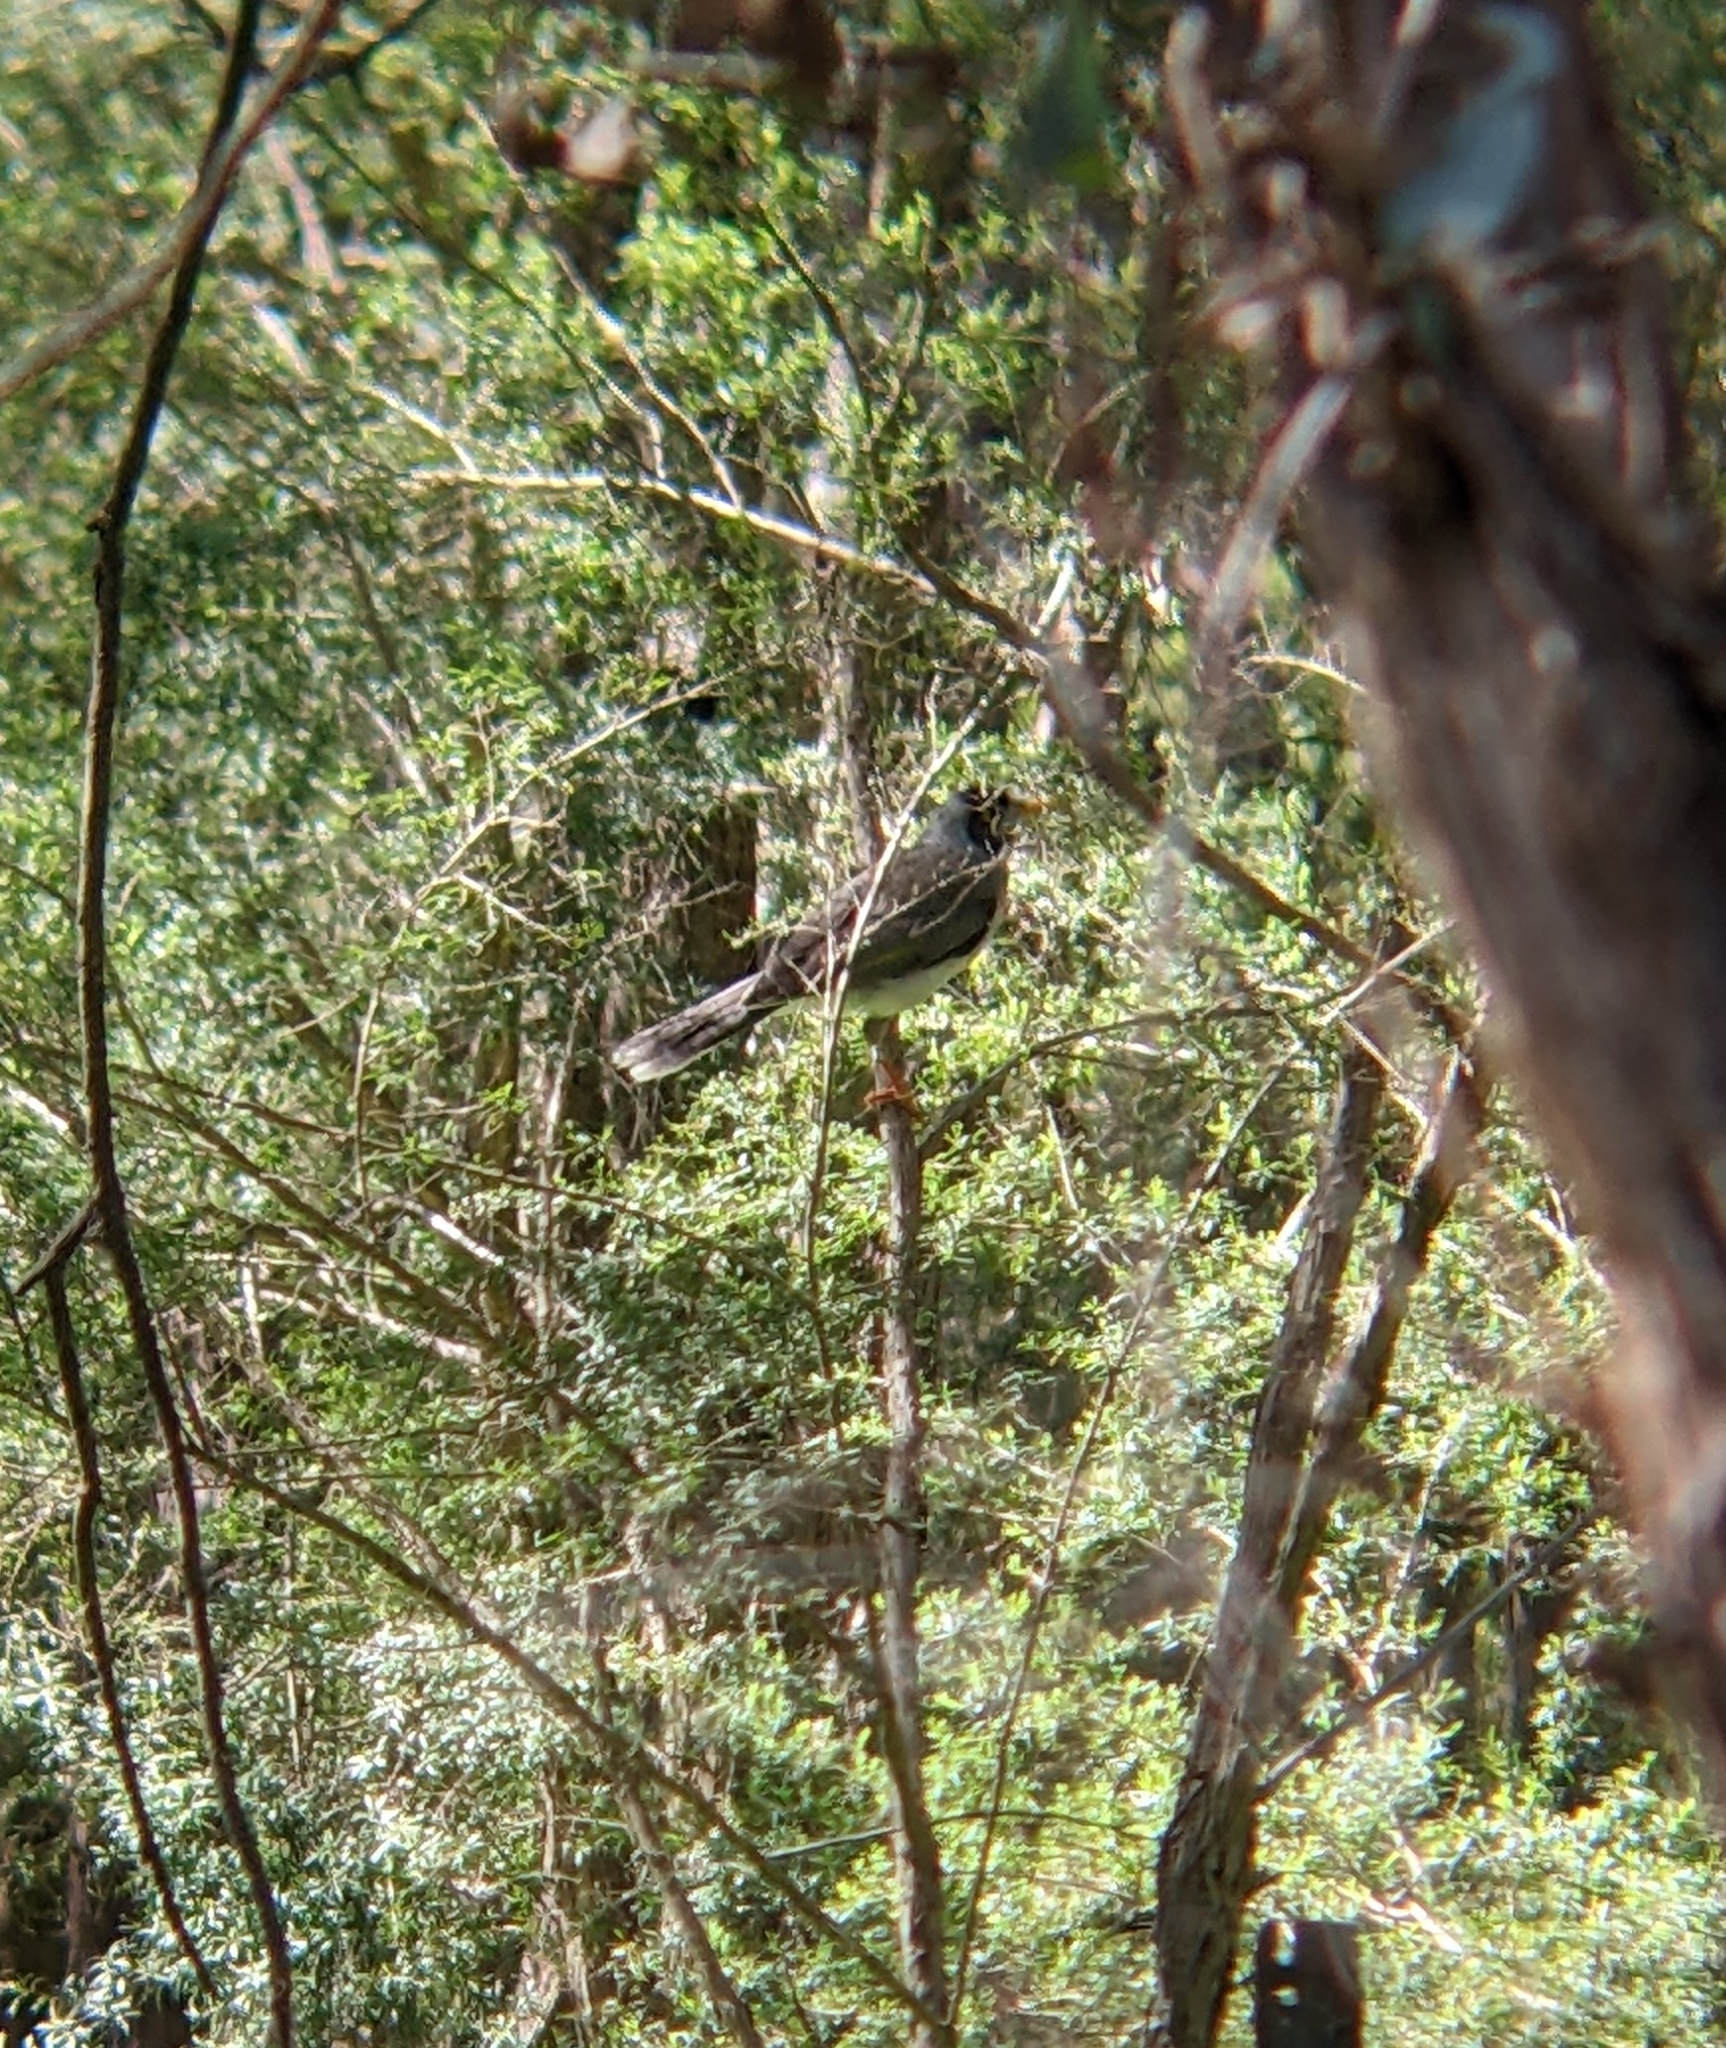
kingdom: Animalia
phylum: Chordata
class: Aves
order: Passeriformes
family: Meliphagidae
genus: Manorina
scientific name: Manorina melanocephala
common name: Noisy miner
